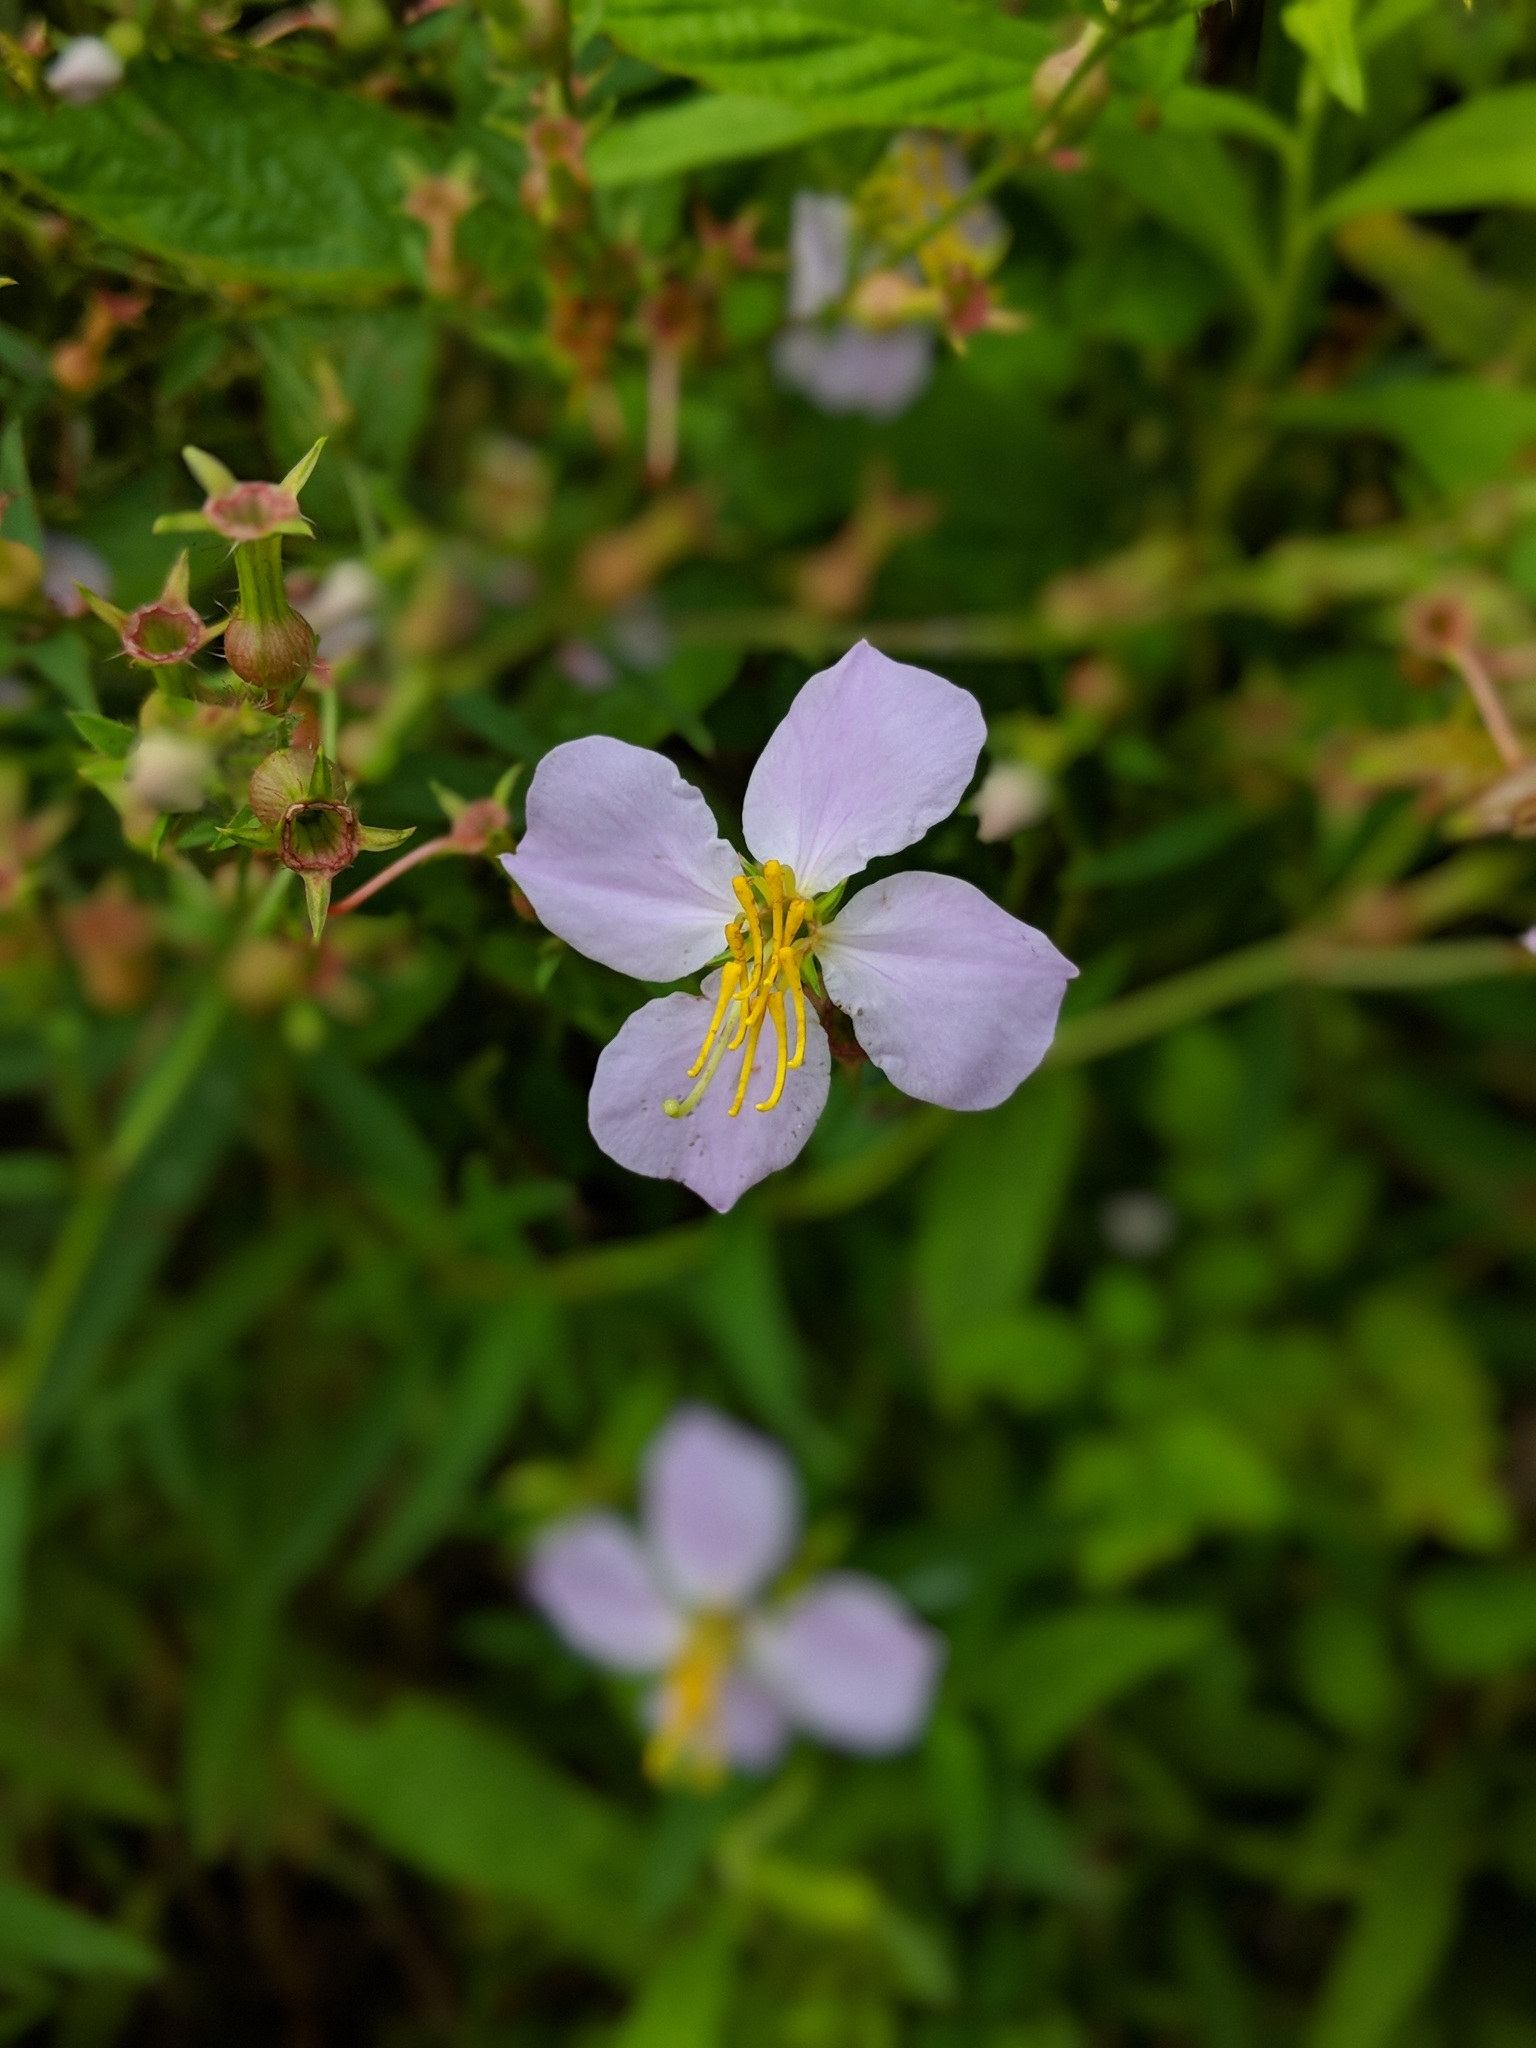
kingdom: Plantae
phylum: Tracheophyta
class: Magnoliopsida
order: Myrtales
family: Melastomataceae
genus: Rhexia
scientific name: Rhexia mariana
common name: Dull meadow-pitcher
